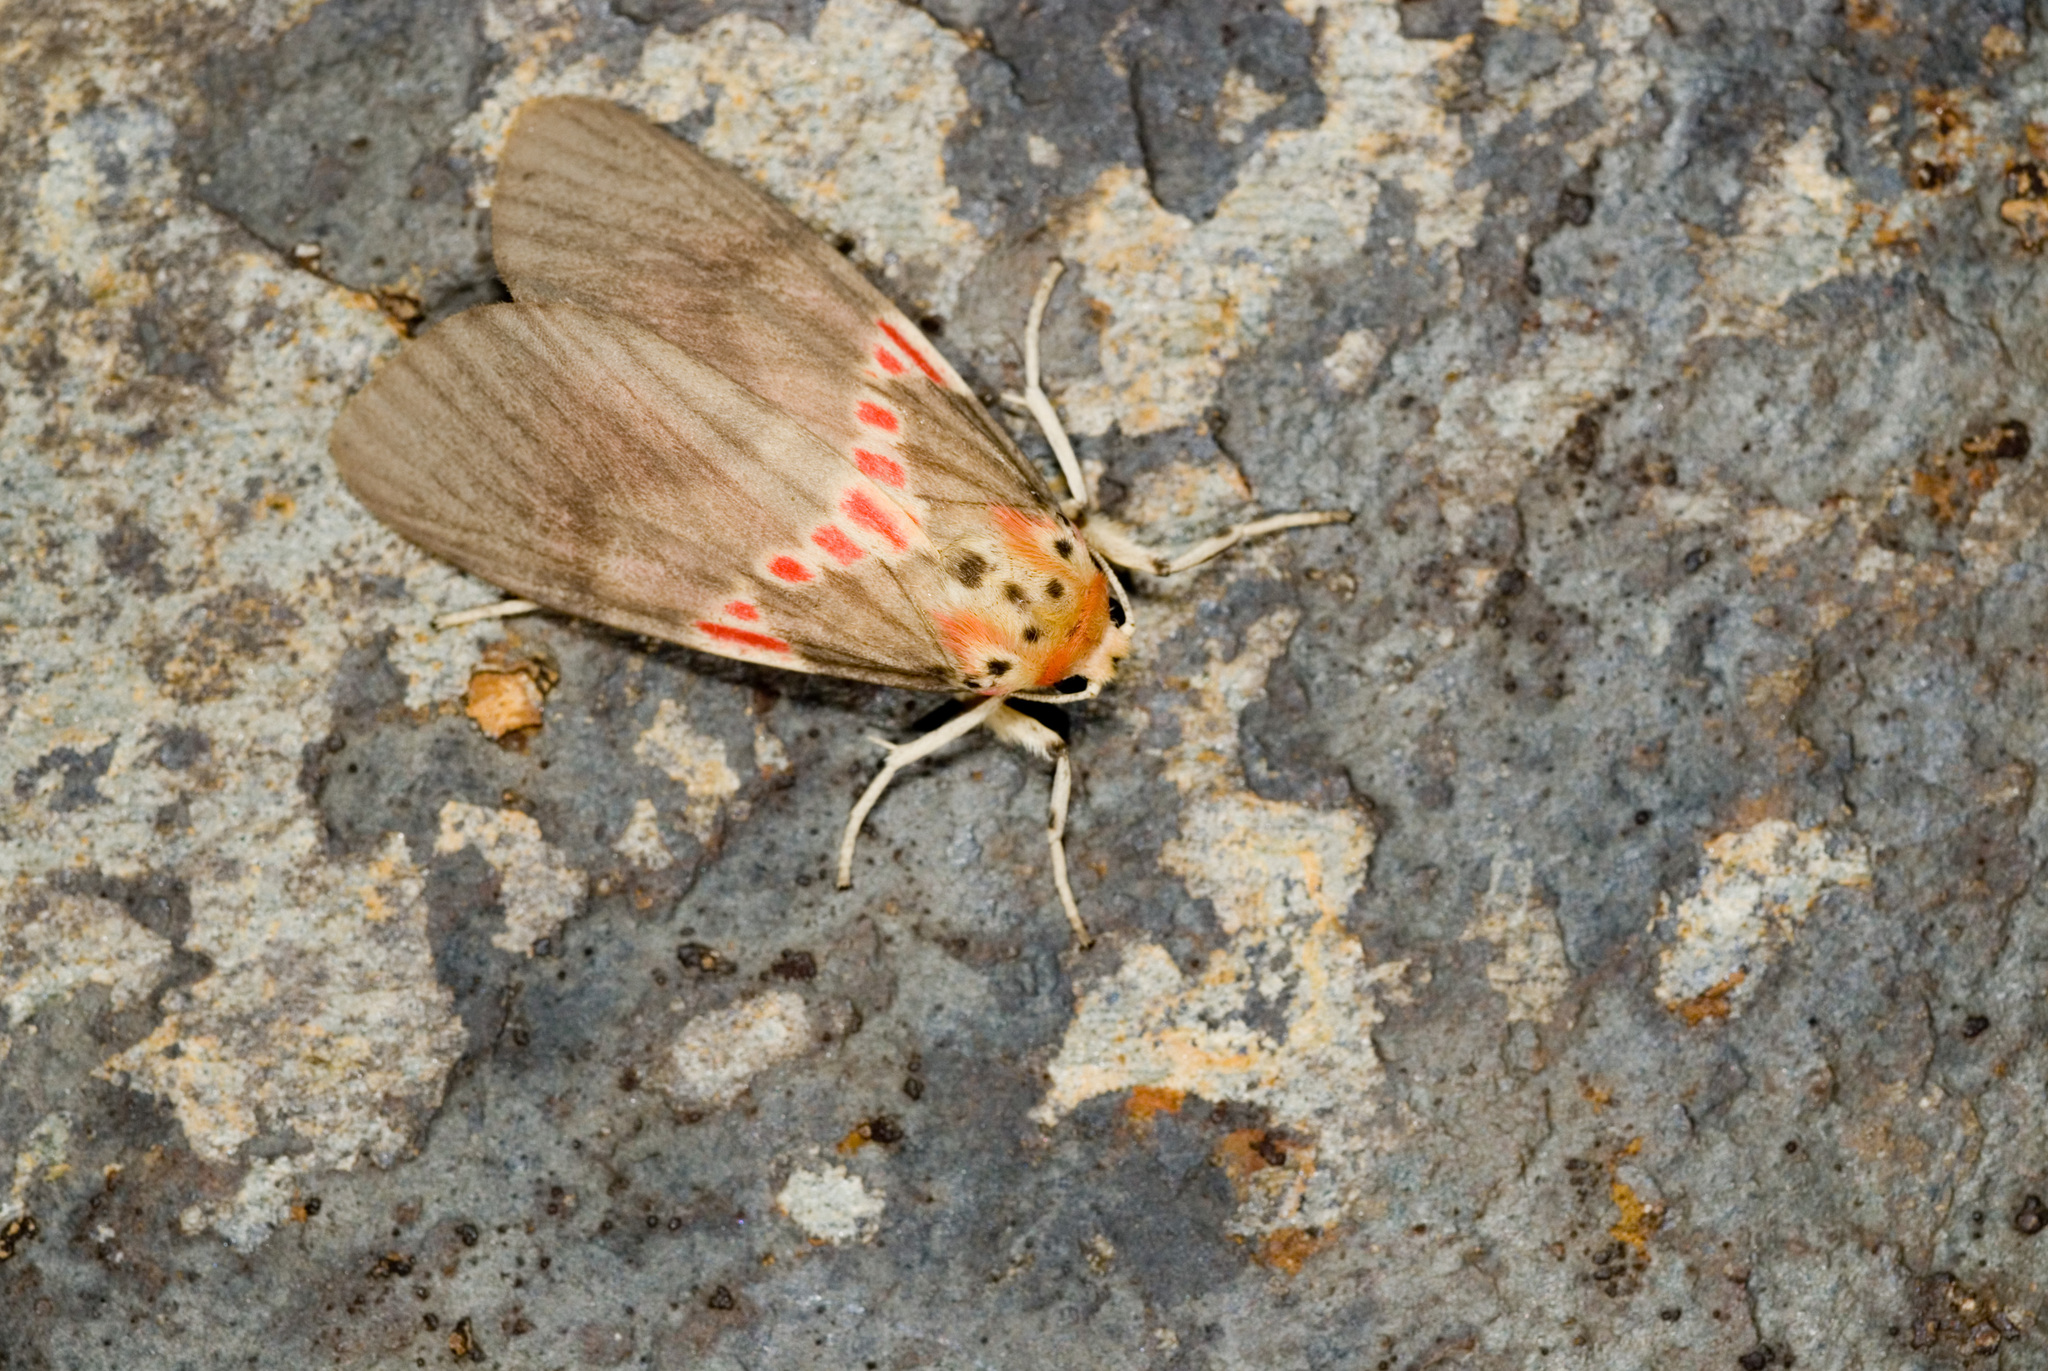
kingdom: Animalia
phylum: Arthropoda
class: Insecta
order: Lepidoptera
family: Erebidae
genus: Barsine
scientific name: Barsine fuscozonata
